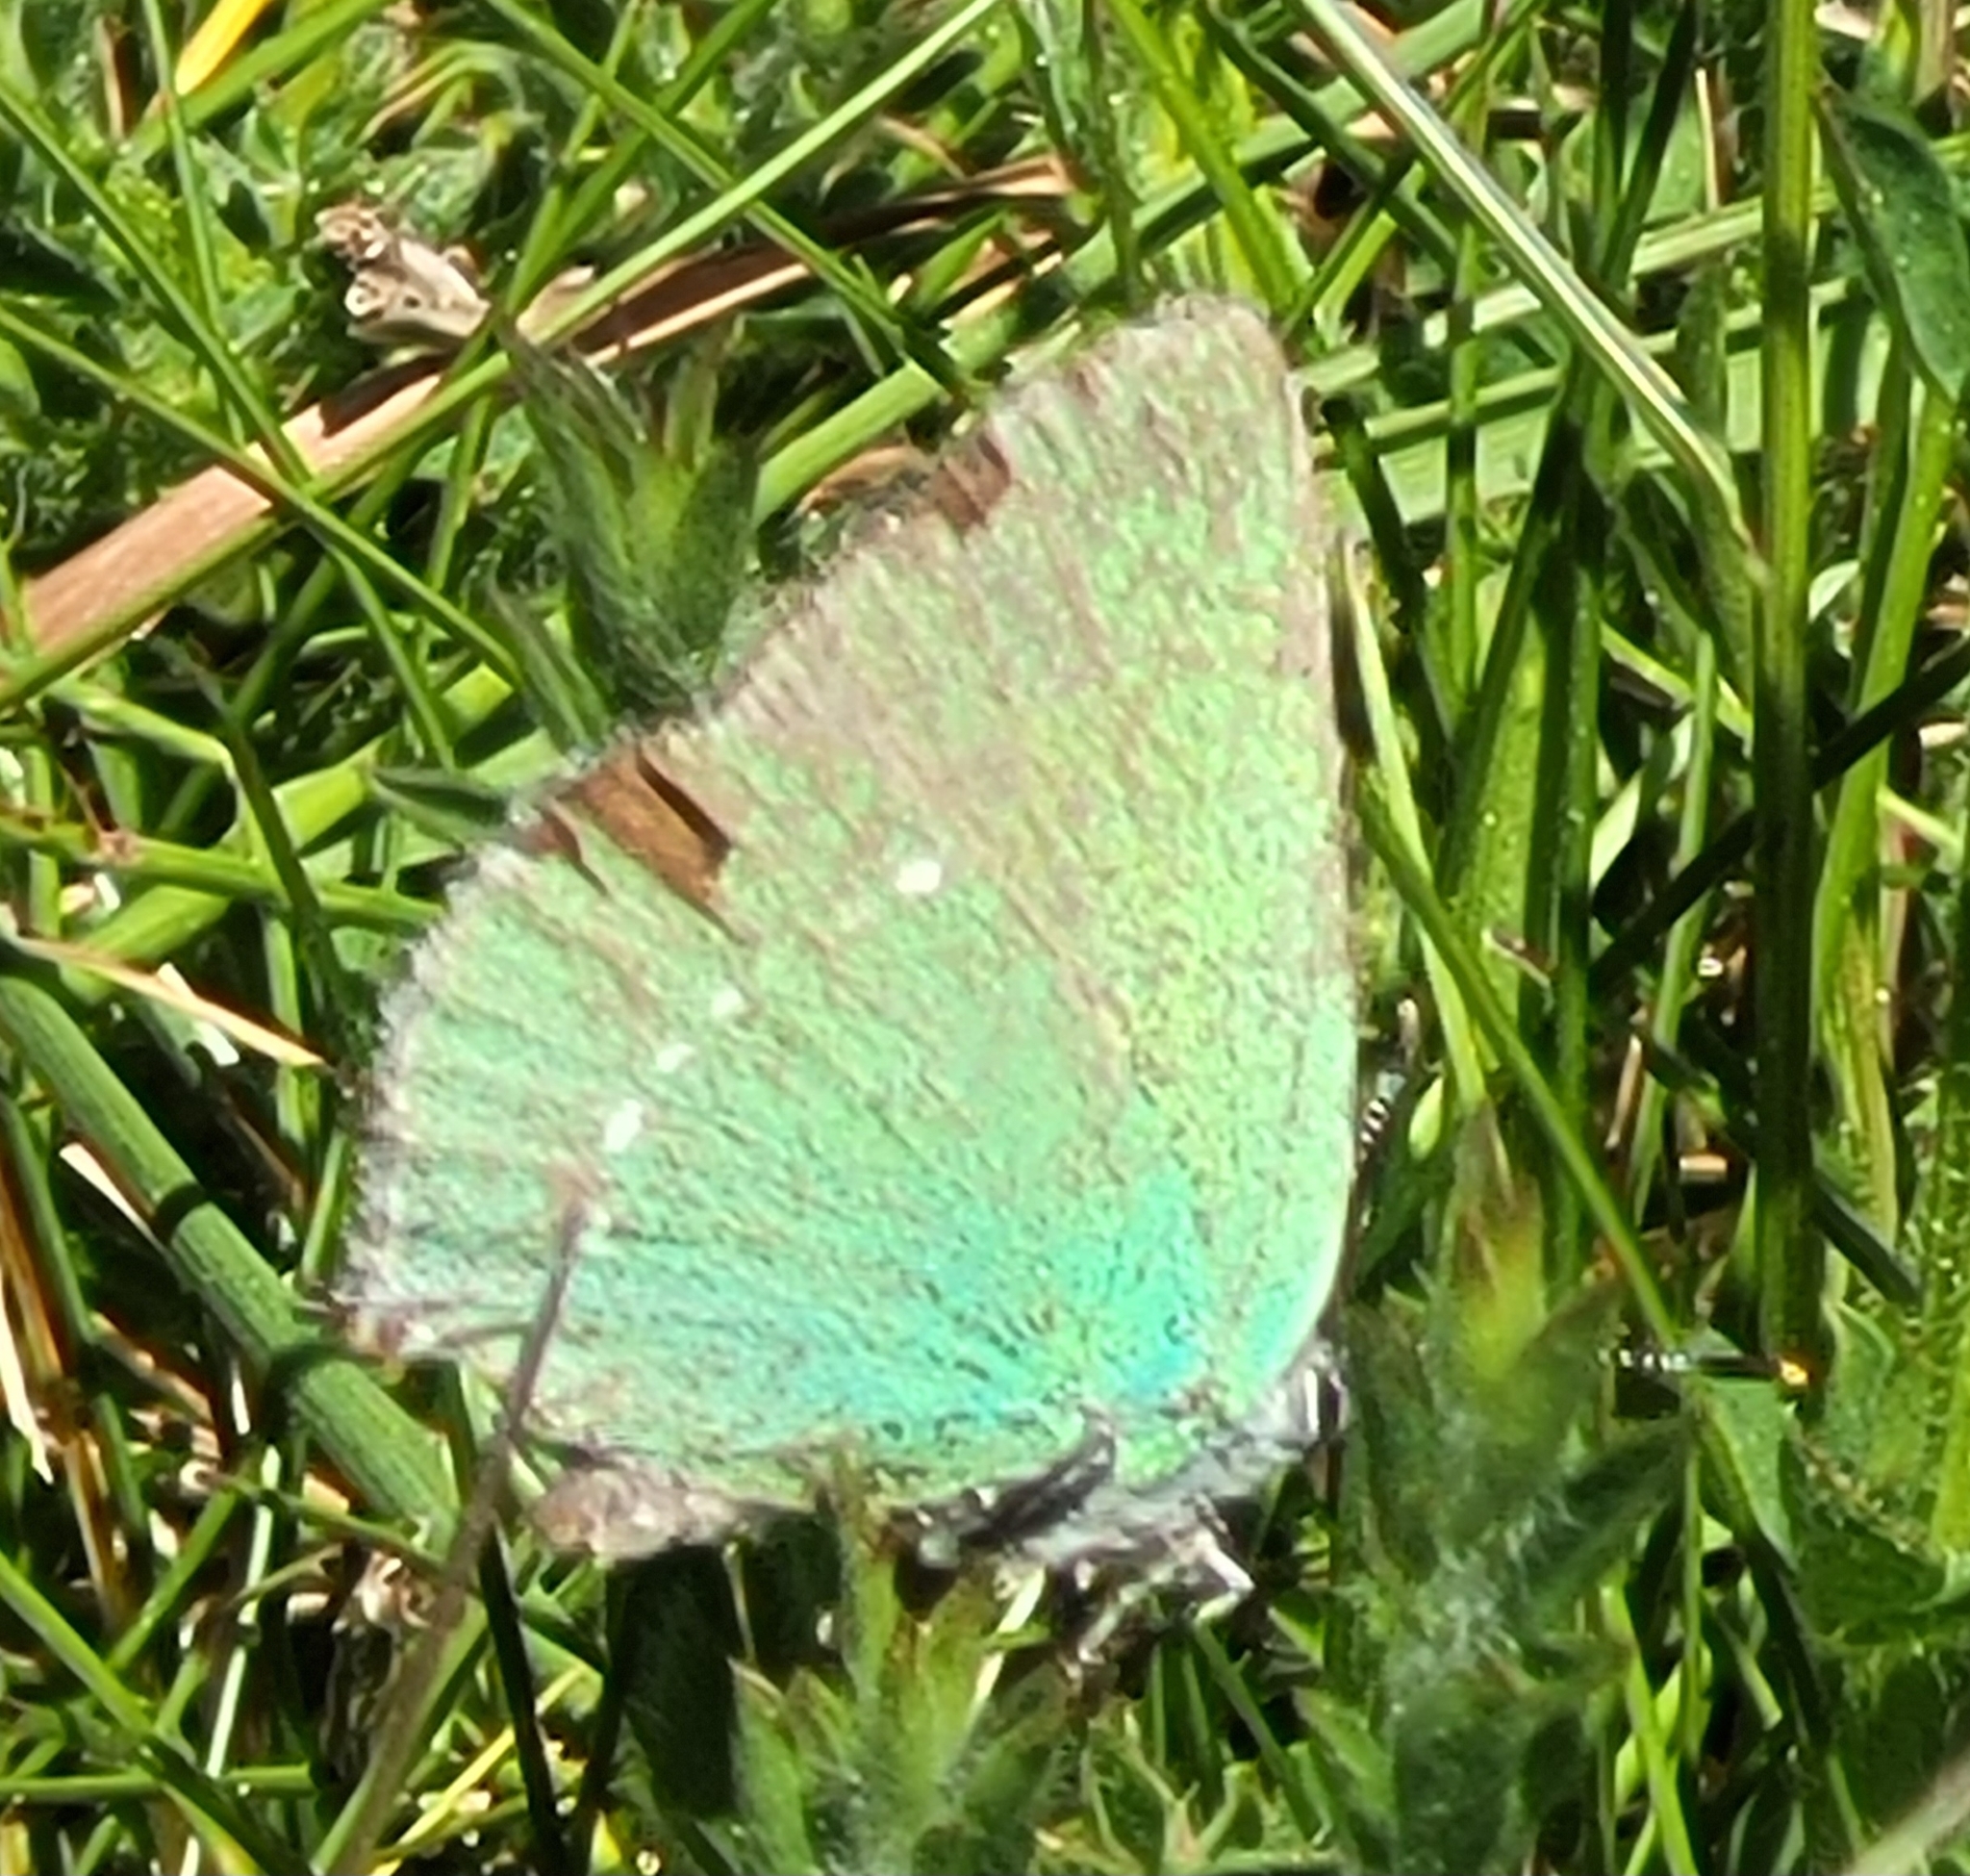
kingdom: Animalia
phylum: Arthropoda
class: Insecta
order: Lepidoptera
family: Lycaenidae
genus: Callophrys
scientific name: Callophrys rubi
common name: Green hairstreak
